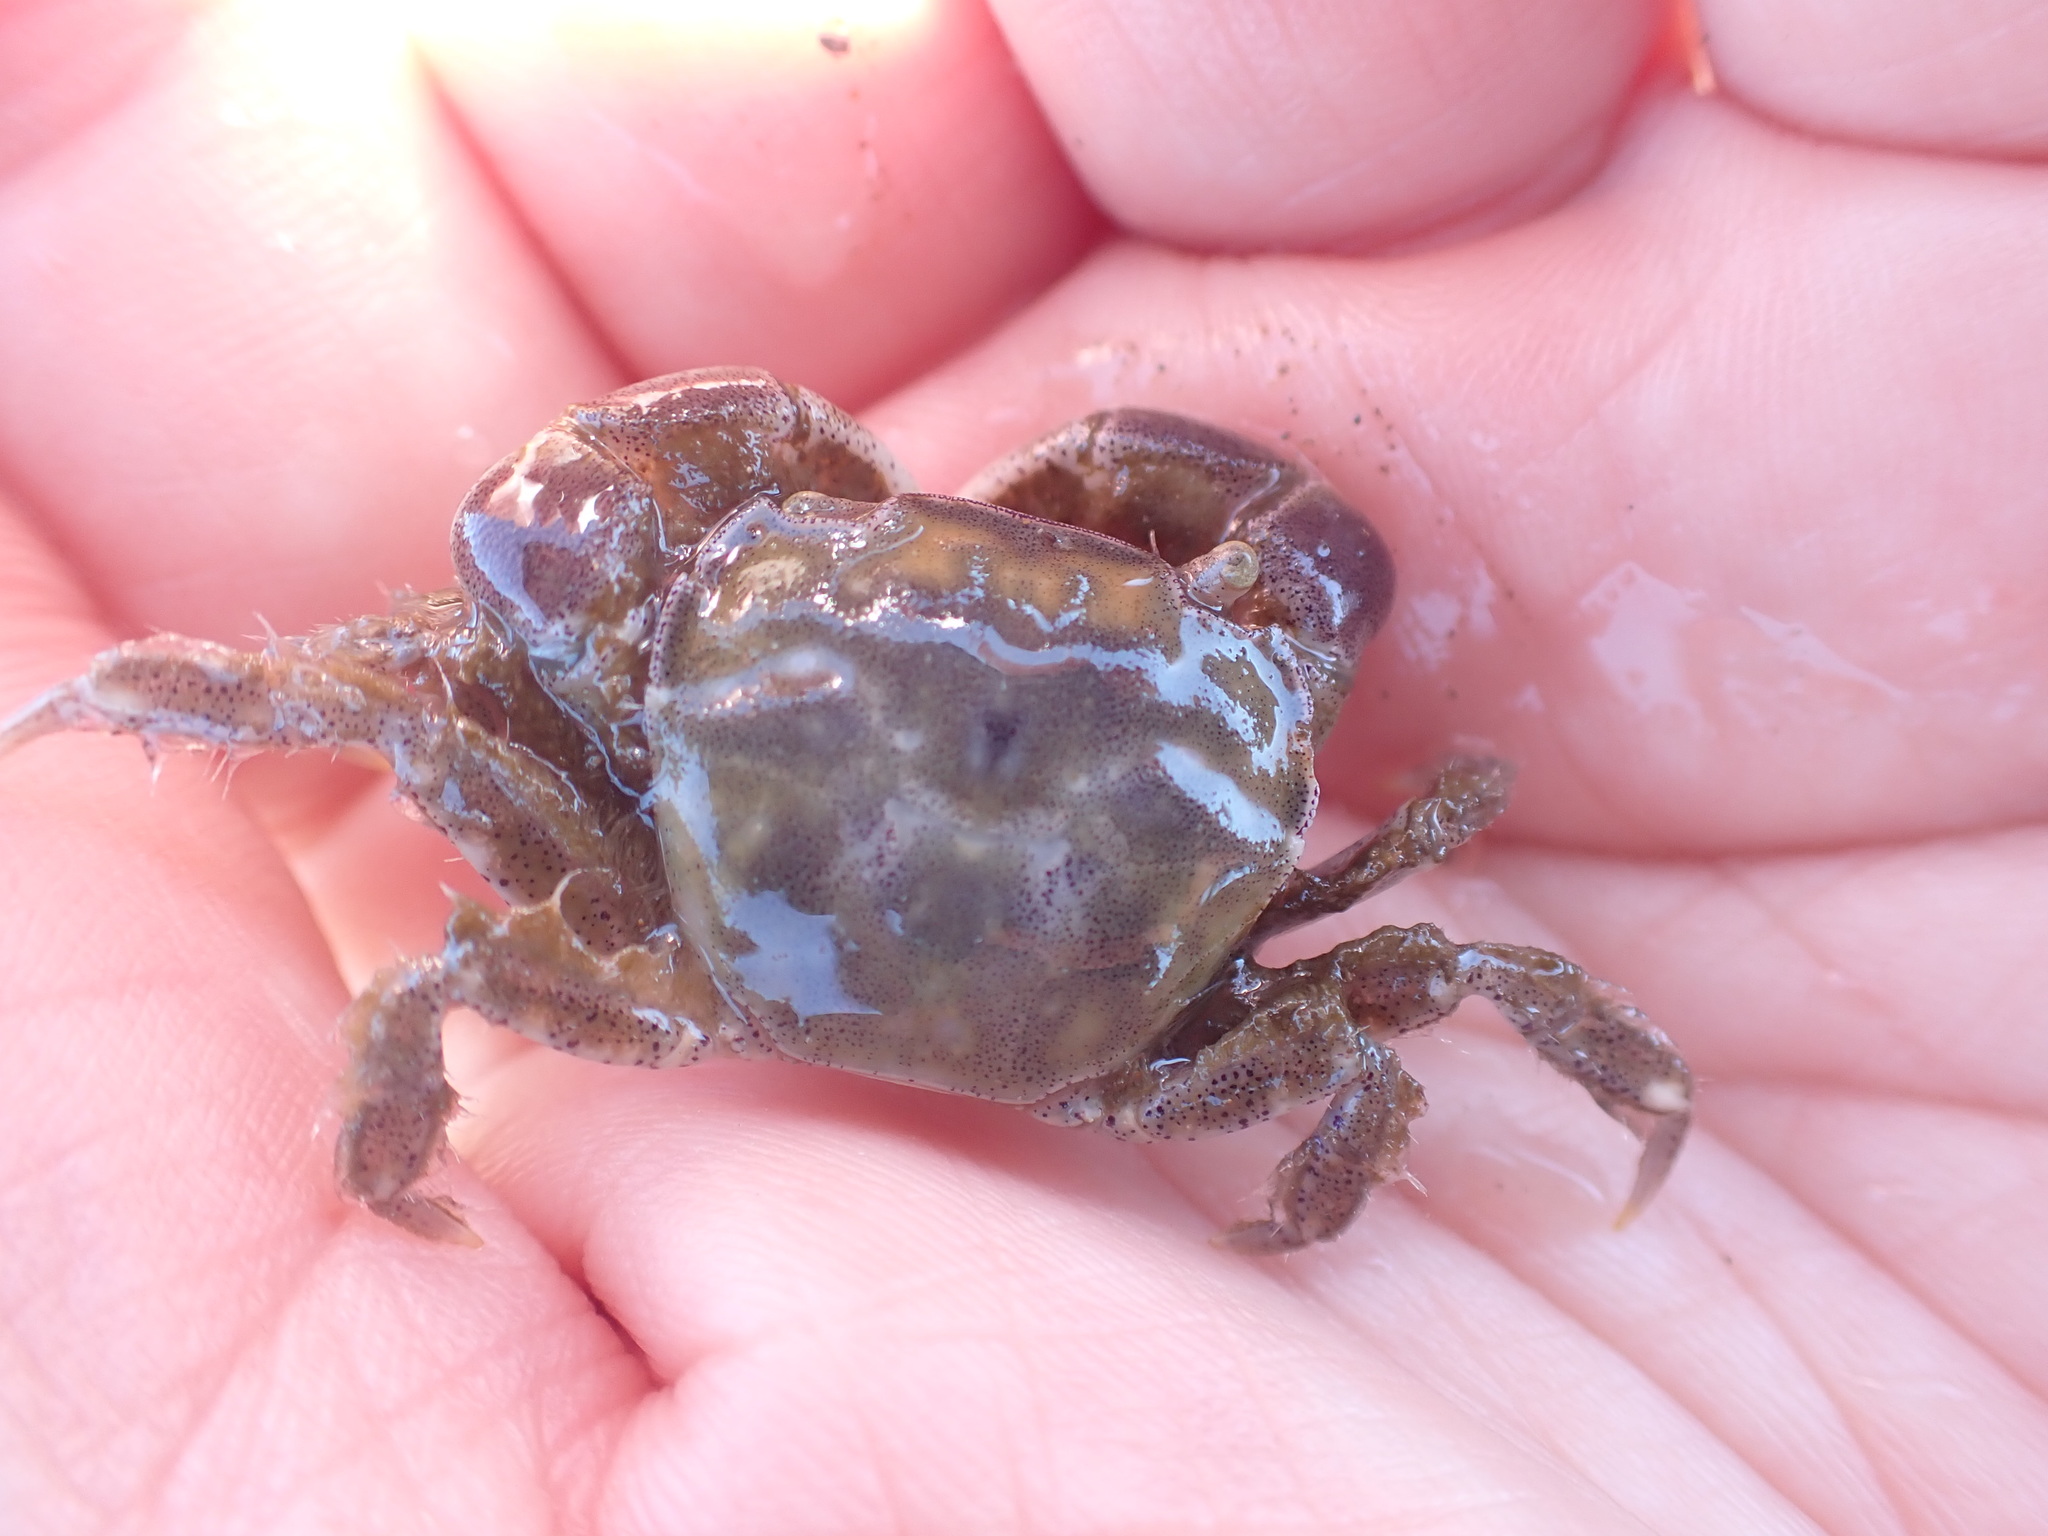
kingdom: Animalia
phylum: Arthropoda
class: Malacostraca
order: Decapoda
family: Varunidae
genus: Hemigrapsus
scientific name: Hemigrapsus crenulatus
